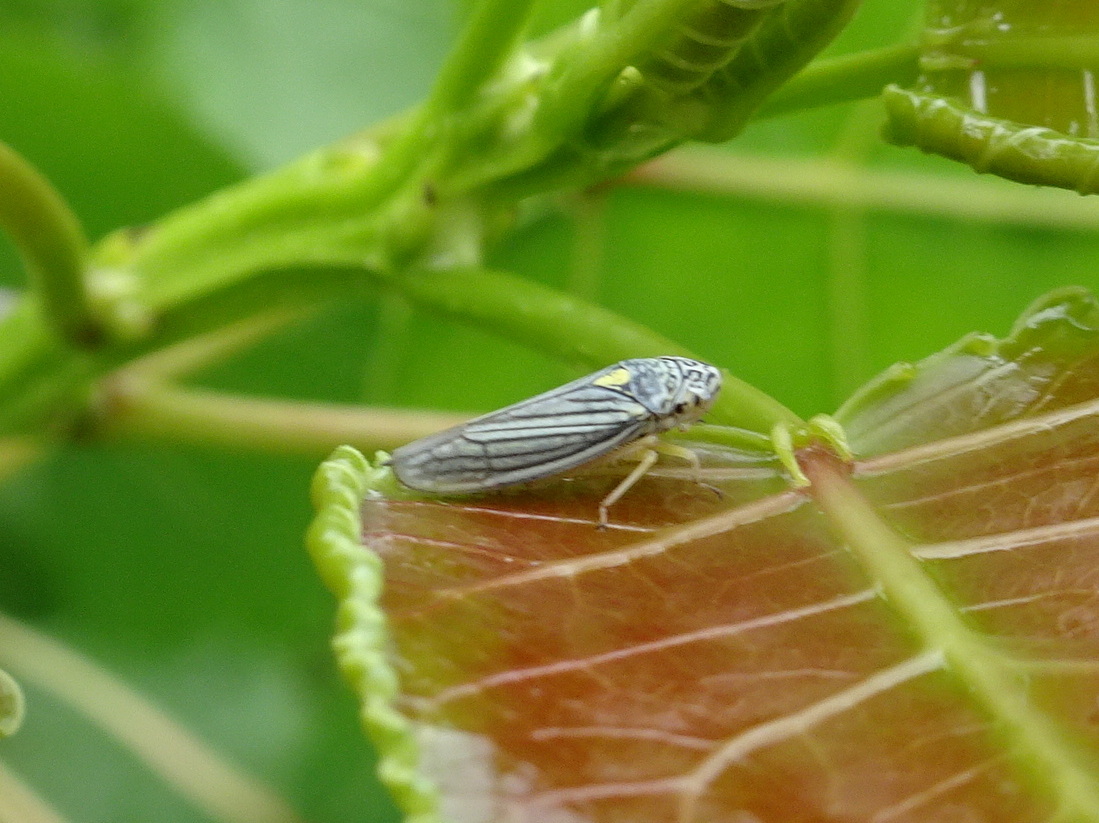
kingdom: Animalia
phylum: Arthropoda
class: Insecta
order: Hemiptera
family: Cicadellidae
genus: Neokolla
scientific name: Neokolla hieroglyphica
